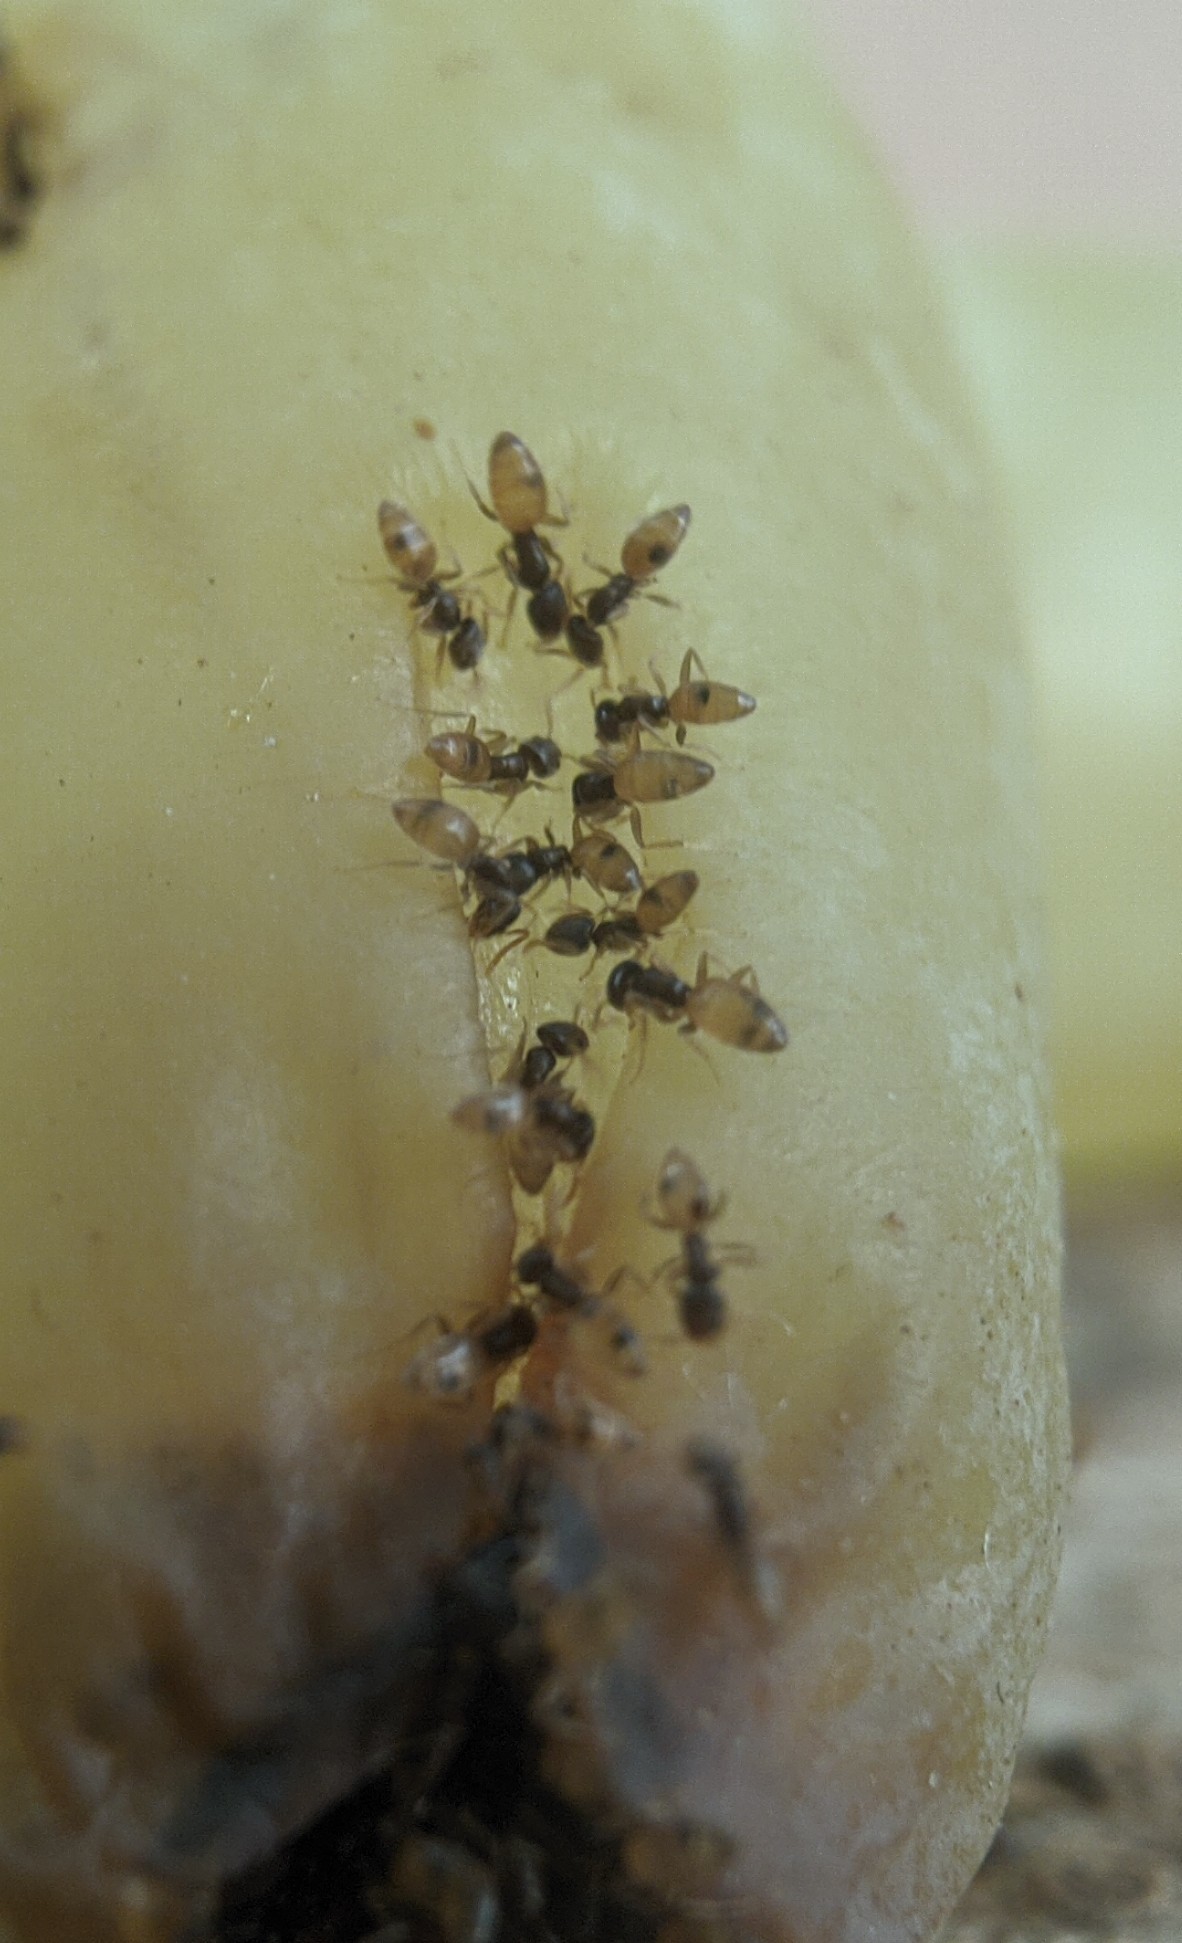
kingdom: Animalia
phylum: Arthropoda
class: Insecta
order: Hymenoptera
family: Formicidae
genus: Tapinoma
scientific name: Tapinoma melanocephalum
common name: Ghost ant
